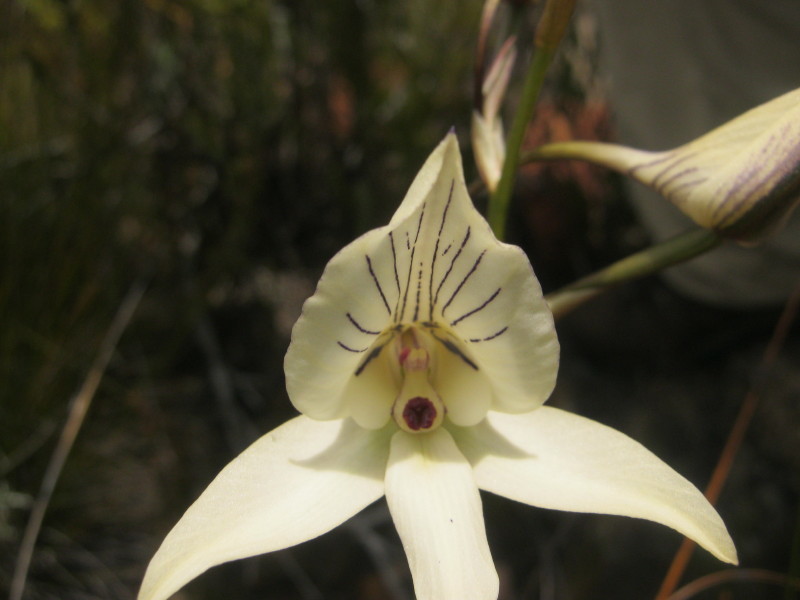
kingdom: Plantae
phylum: Tracheophyta
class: Liliopsida
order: Asparagales
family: Orchidaceae
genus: Disa
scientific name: Disa schlechteriana
